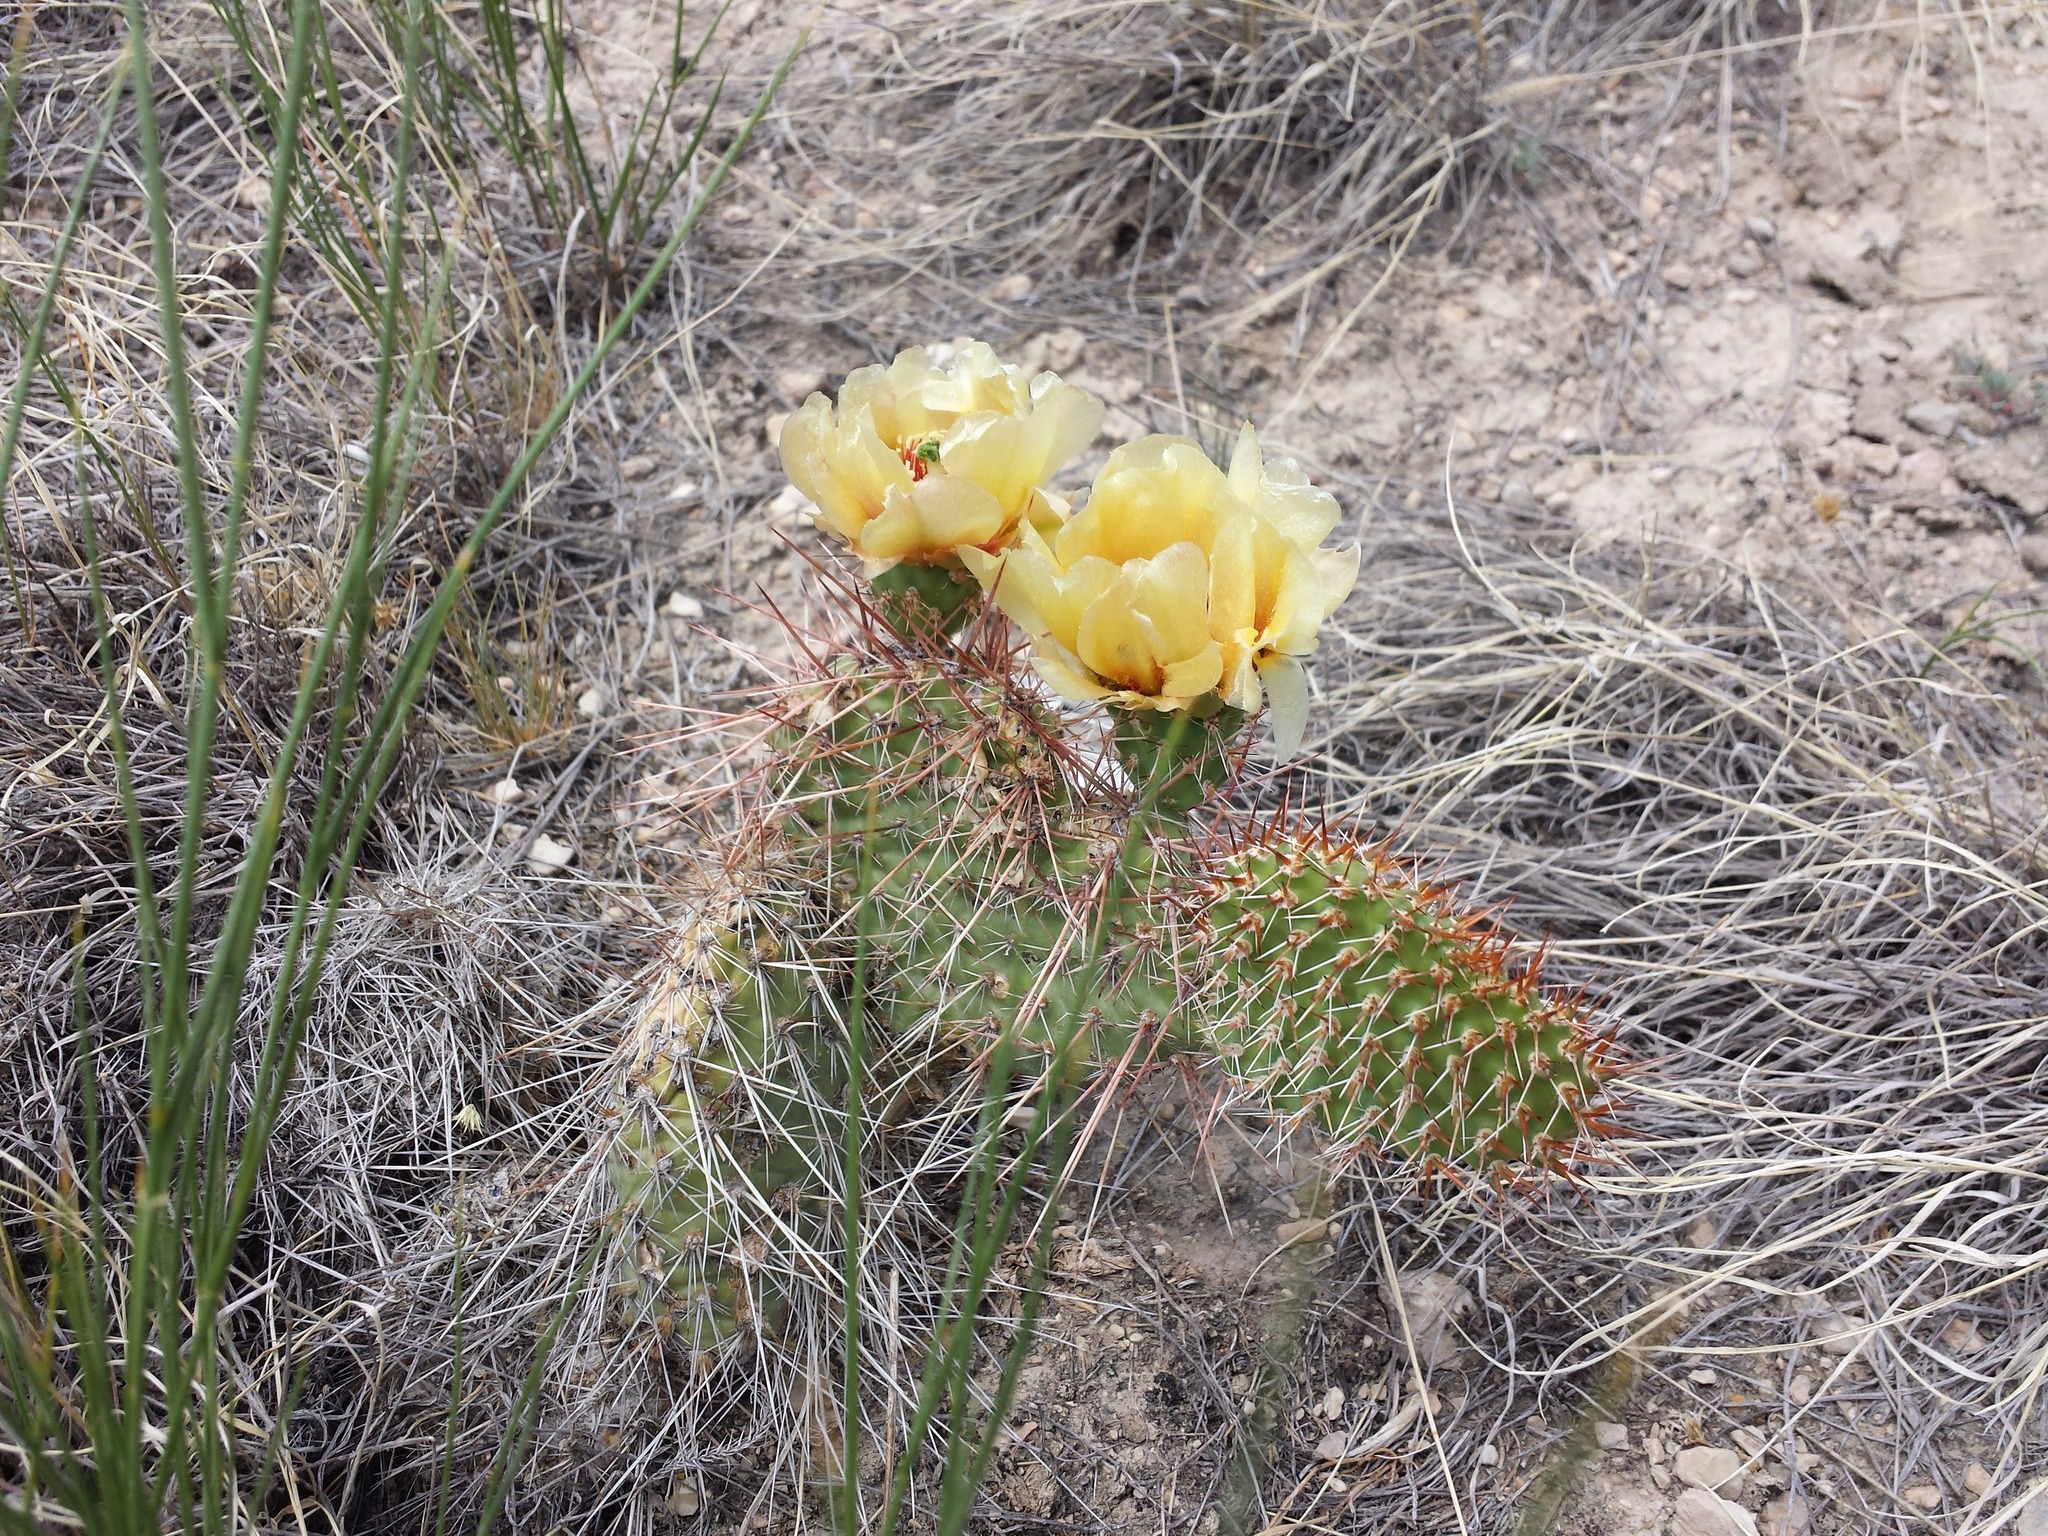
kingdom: Plantae
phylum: Tracheophyta
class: Magnoliopsida
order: Caryophyllales
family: Cactaceae
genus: Opuntia
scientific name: Opuntia polyacantha
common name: Plains prickly-pear
